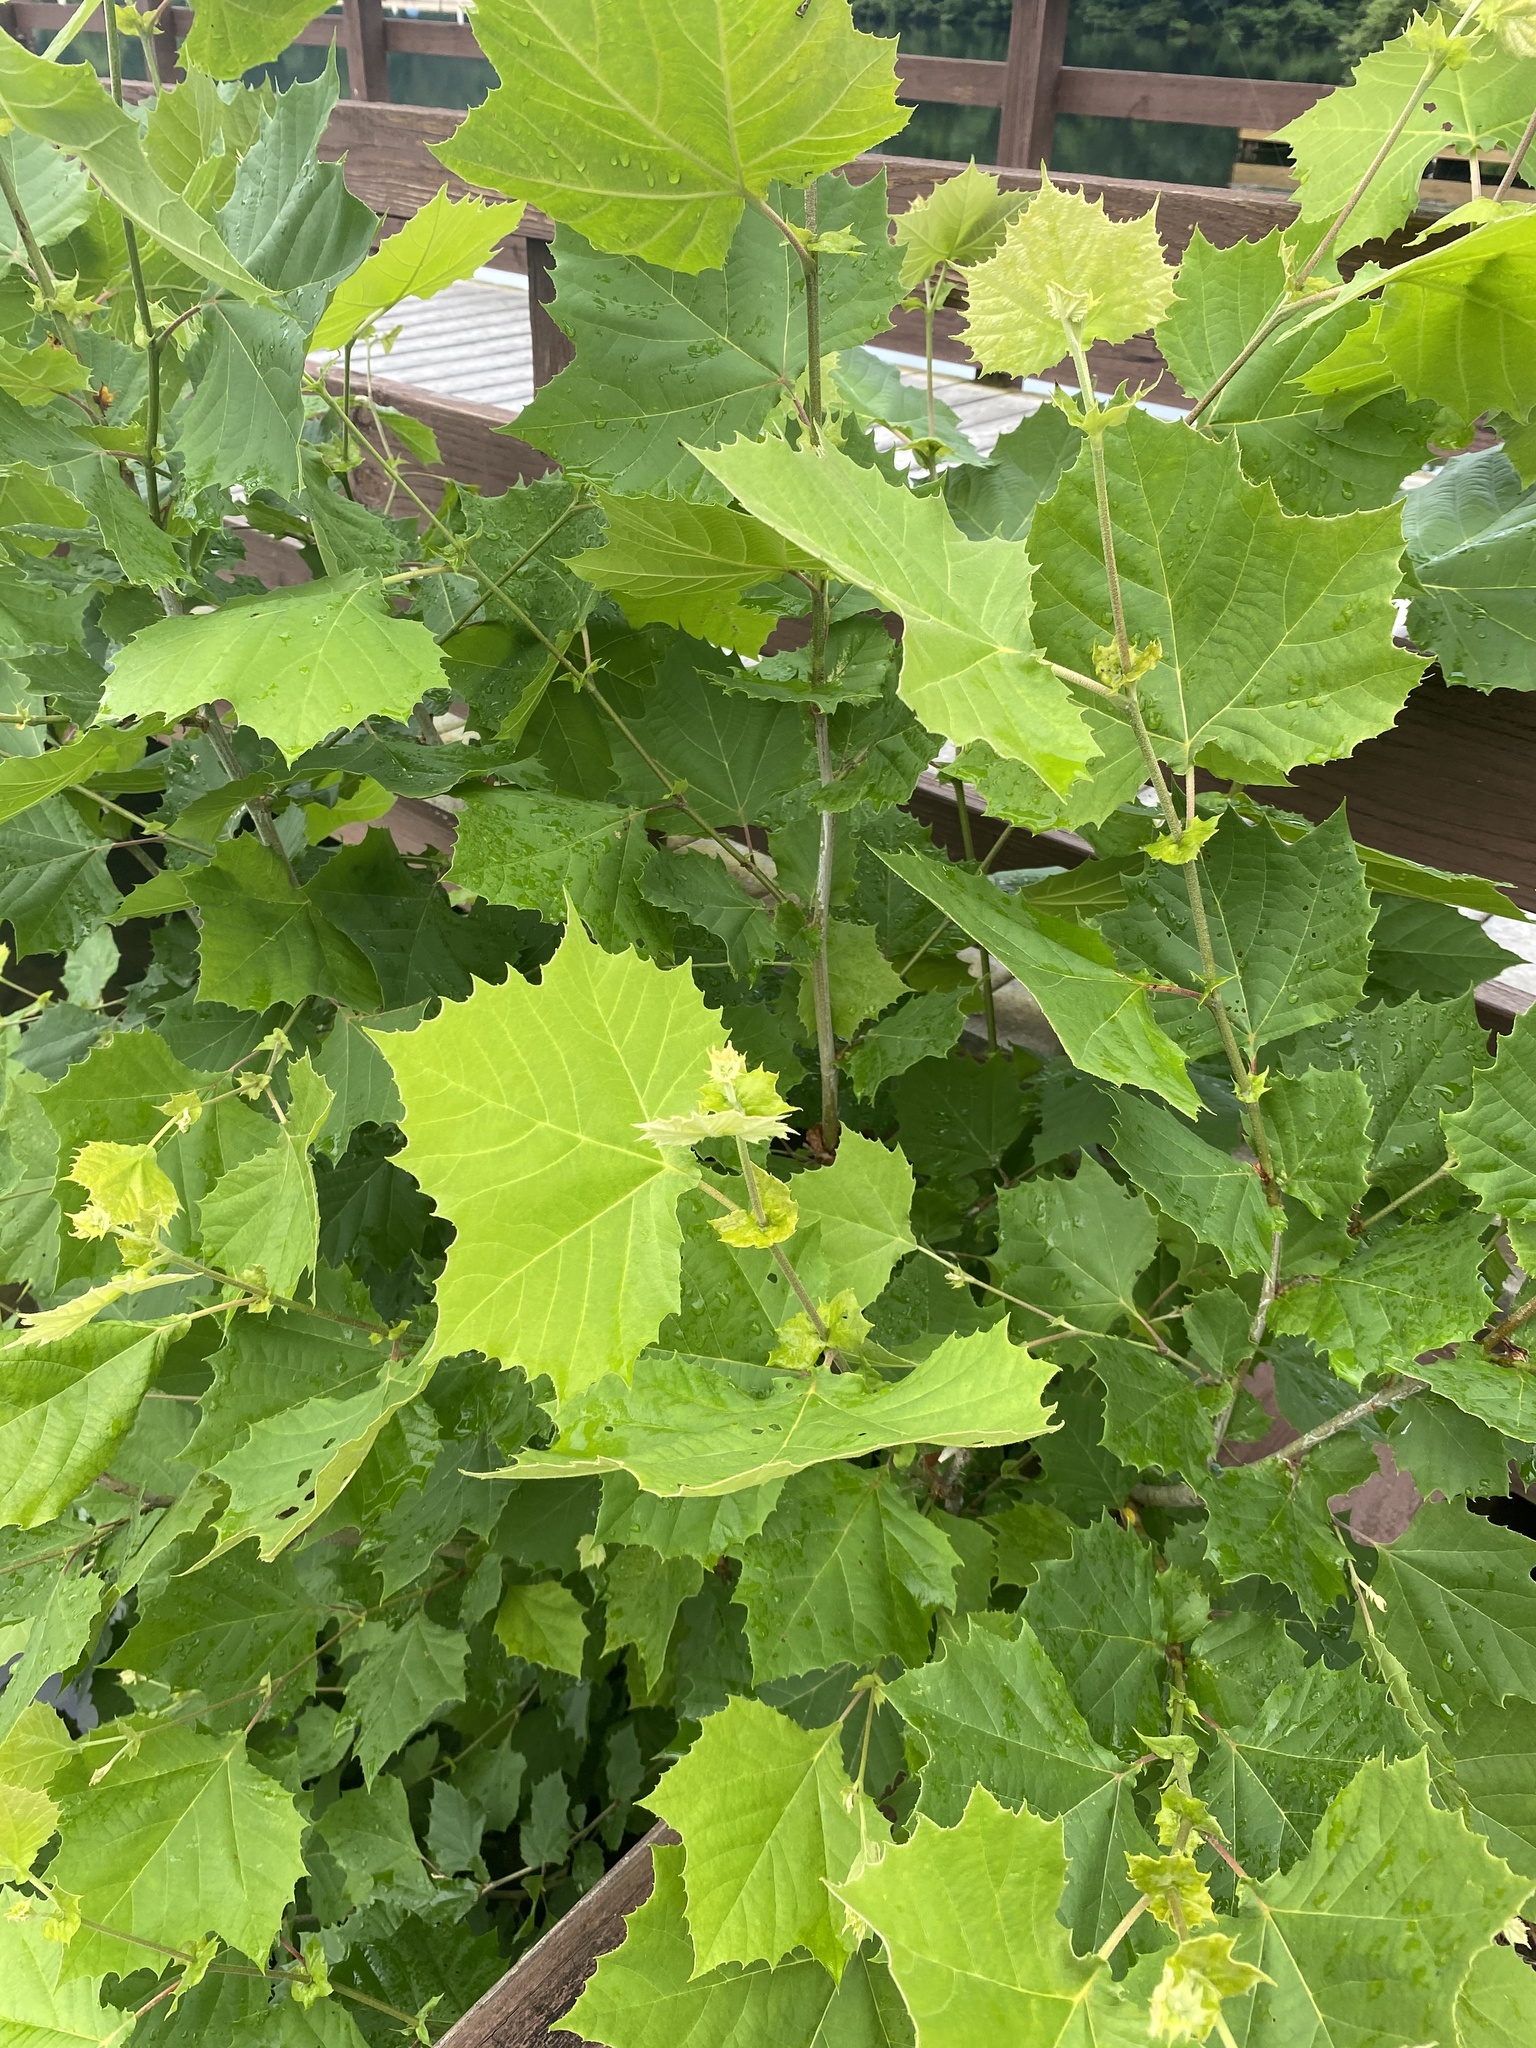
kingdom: Plantae
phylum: Tracheophyta
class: Magnoliopsida
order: Proteales
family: Platanaceae
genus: Platanus
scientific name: Platanus occidentalis
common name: American sycamore
